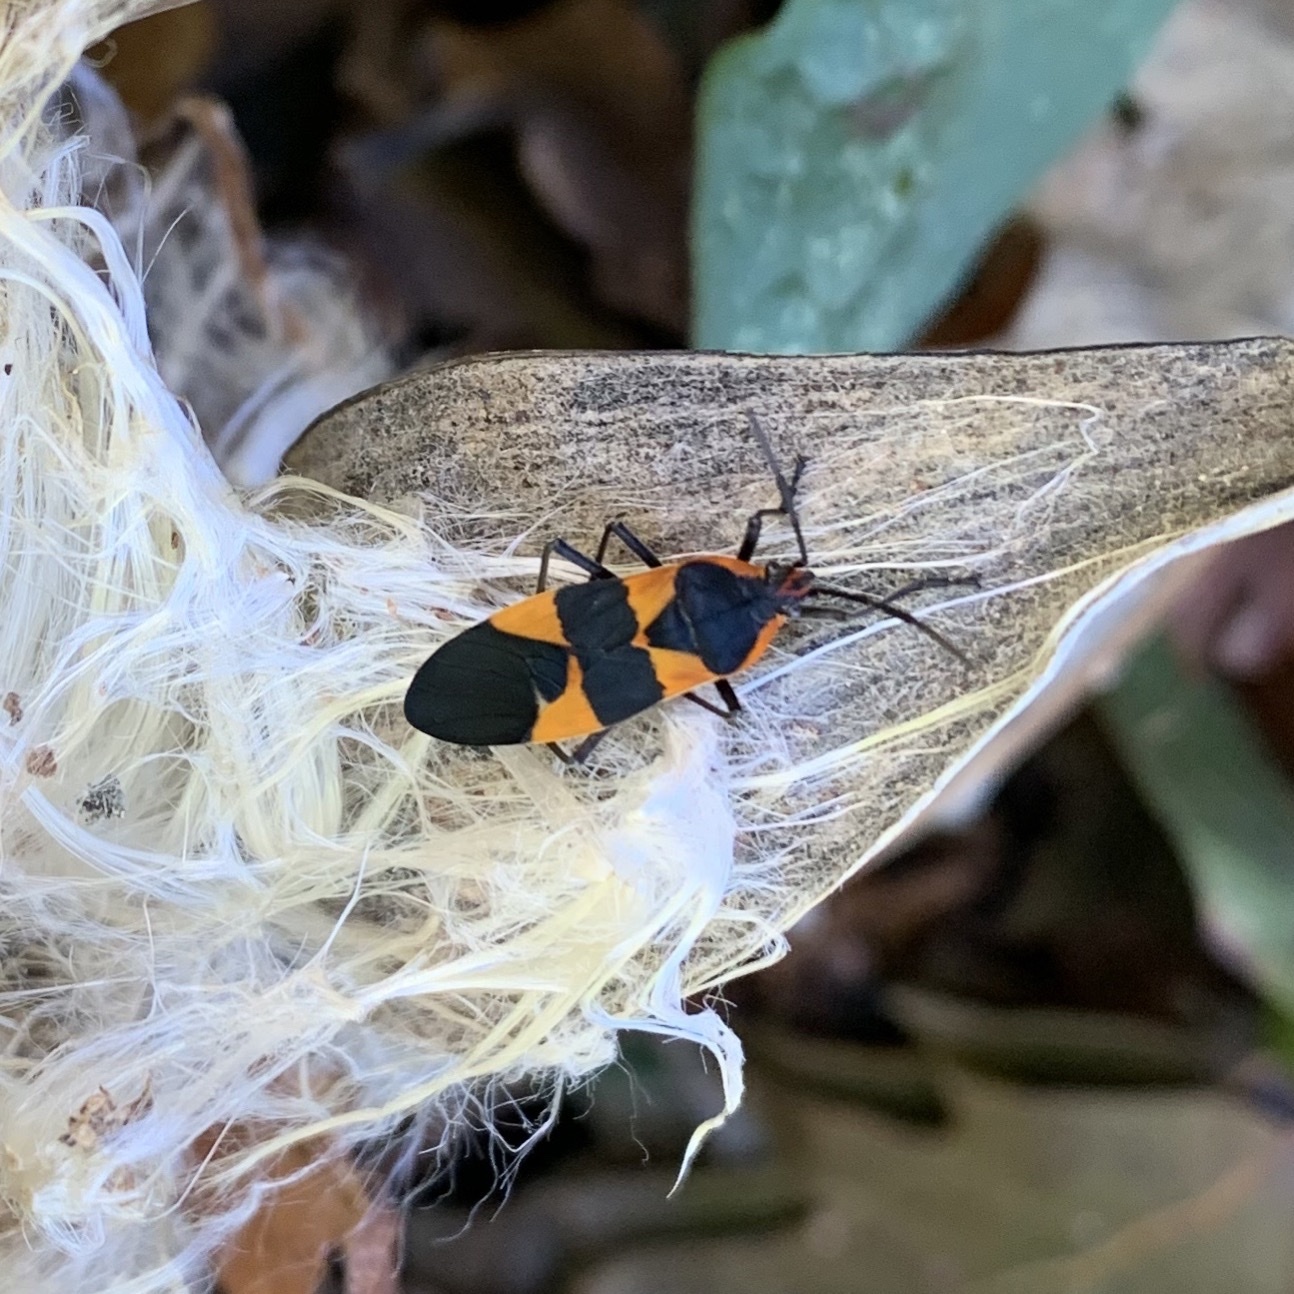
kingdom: Animalia
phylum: Arthropoda
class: Insecta
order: Hemiptera
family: Lygaeidae
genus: Oncopeltus
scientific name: Oncopeltus fasciatus
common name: Large milkweed bug
